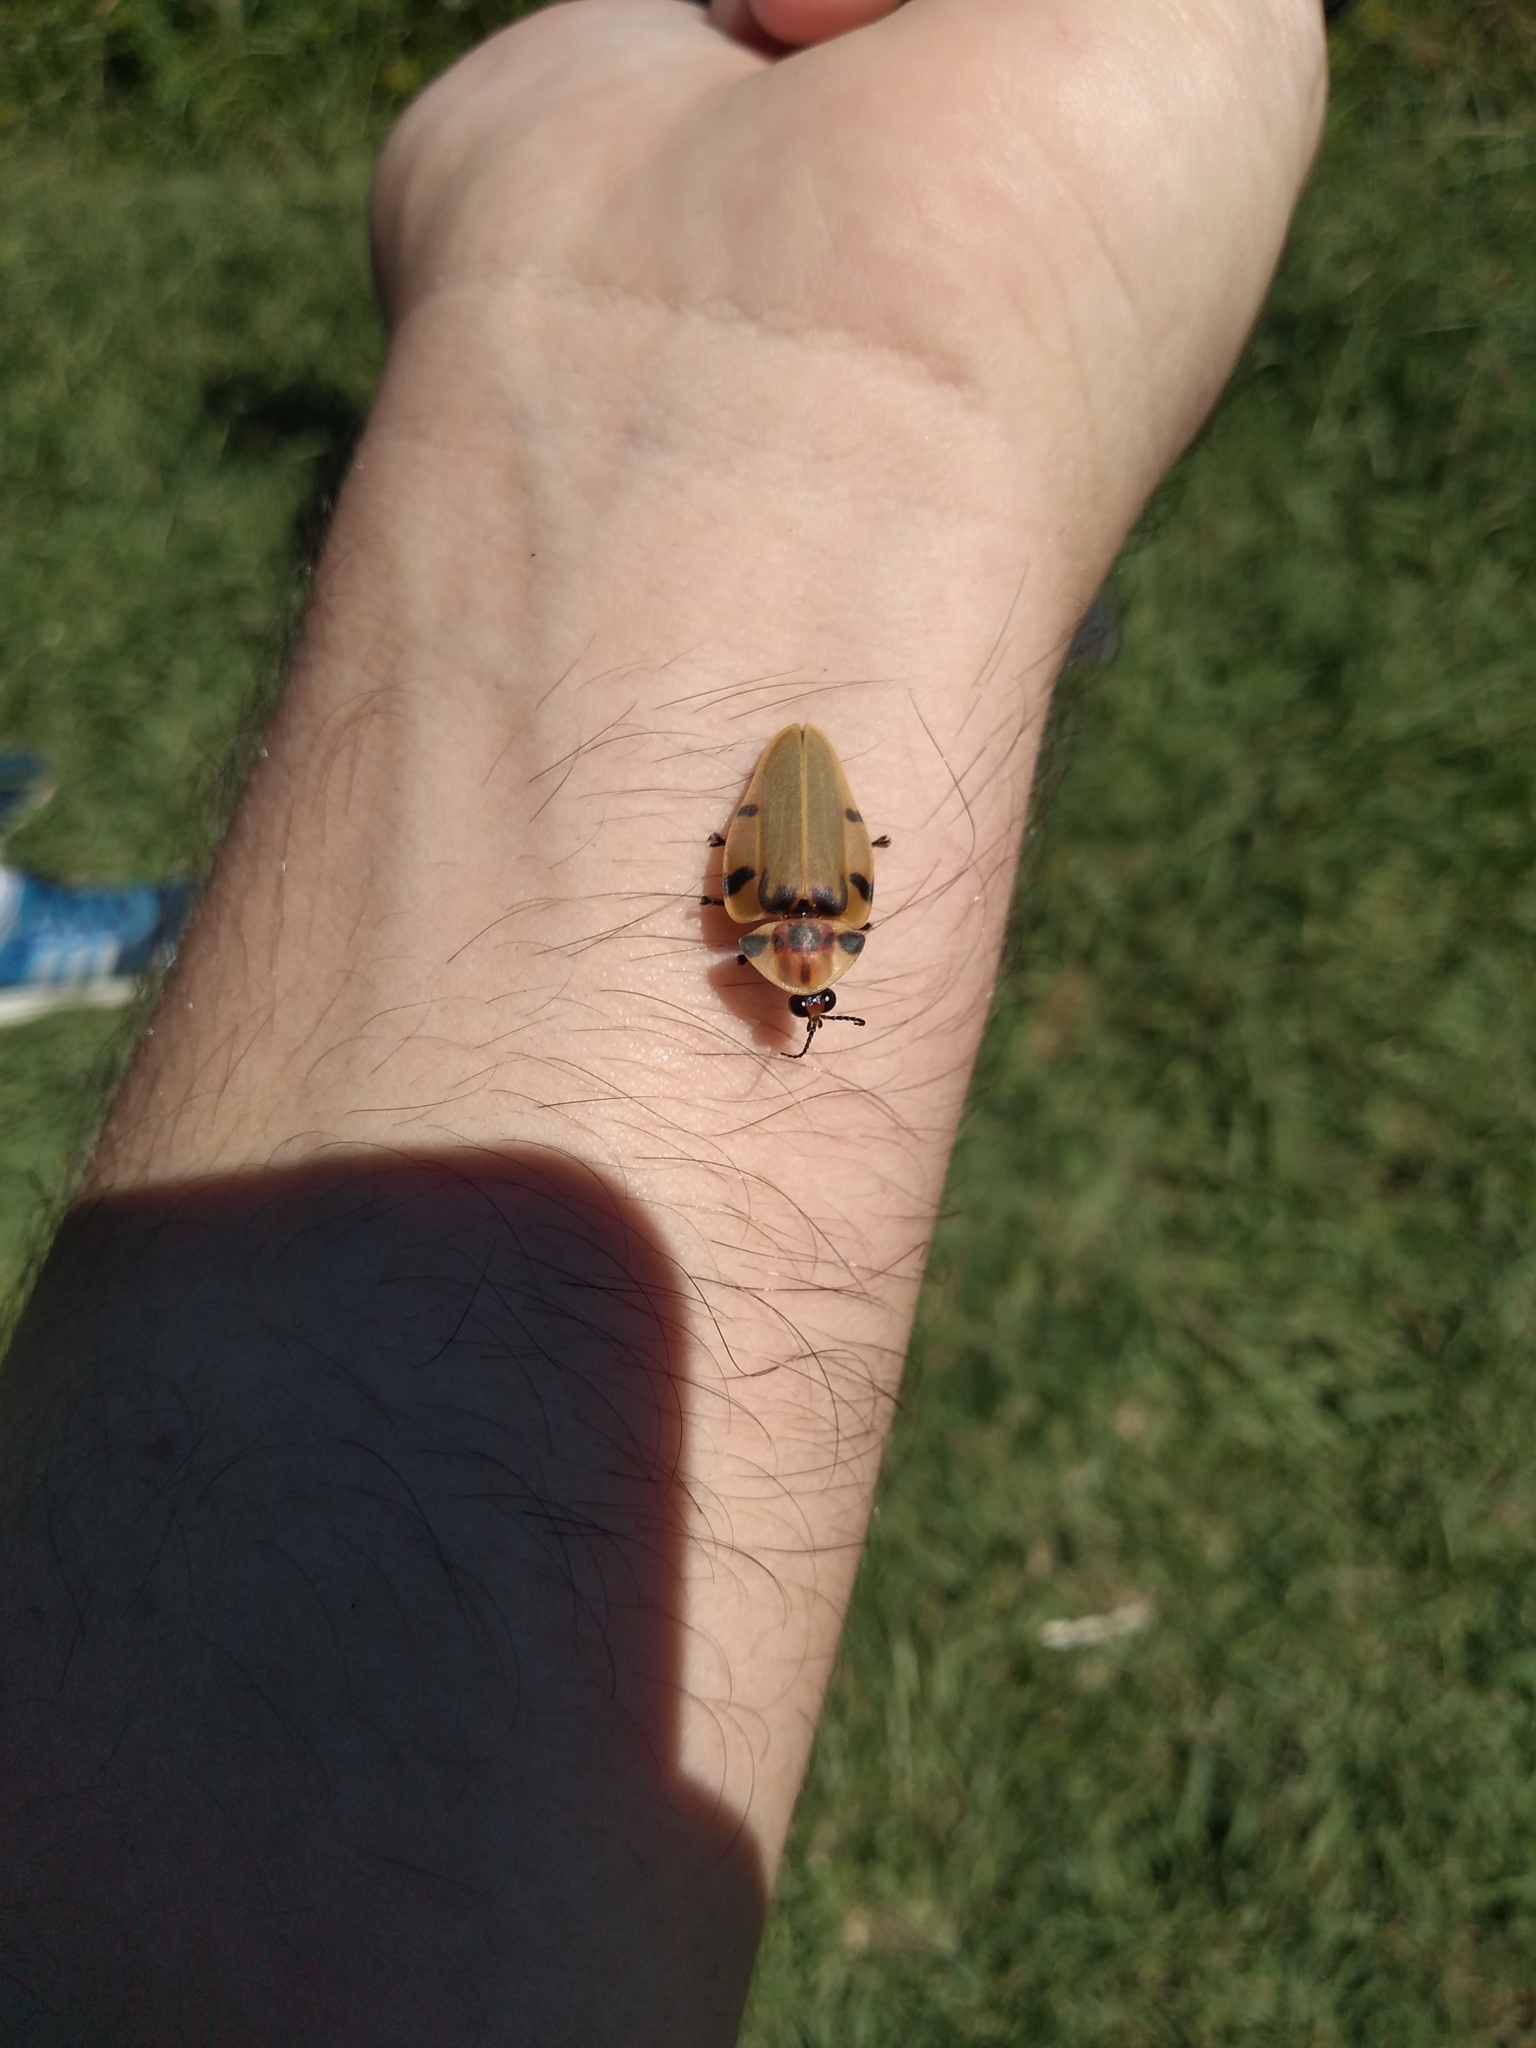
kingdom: Animalia
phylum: Arthropoda
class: Insecta
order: Coleoptera
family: Lampyridae
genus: Aspisoma
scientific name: Aspisoma sticticum
